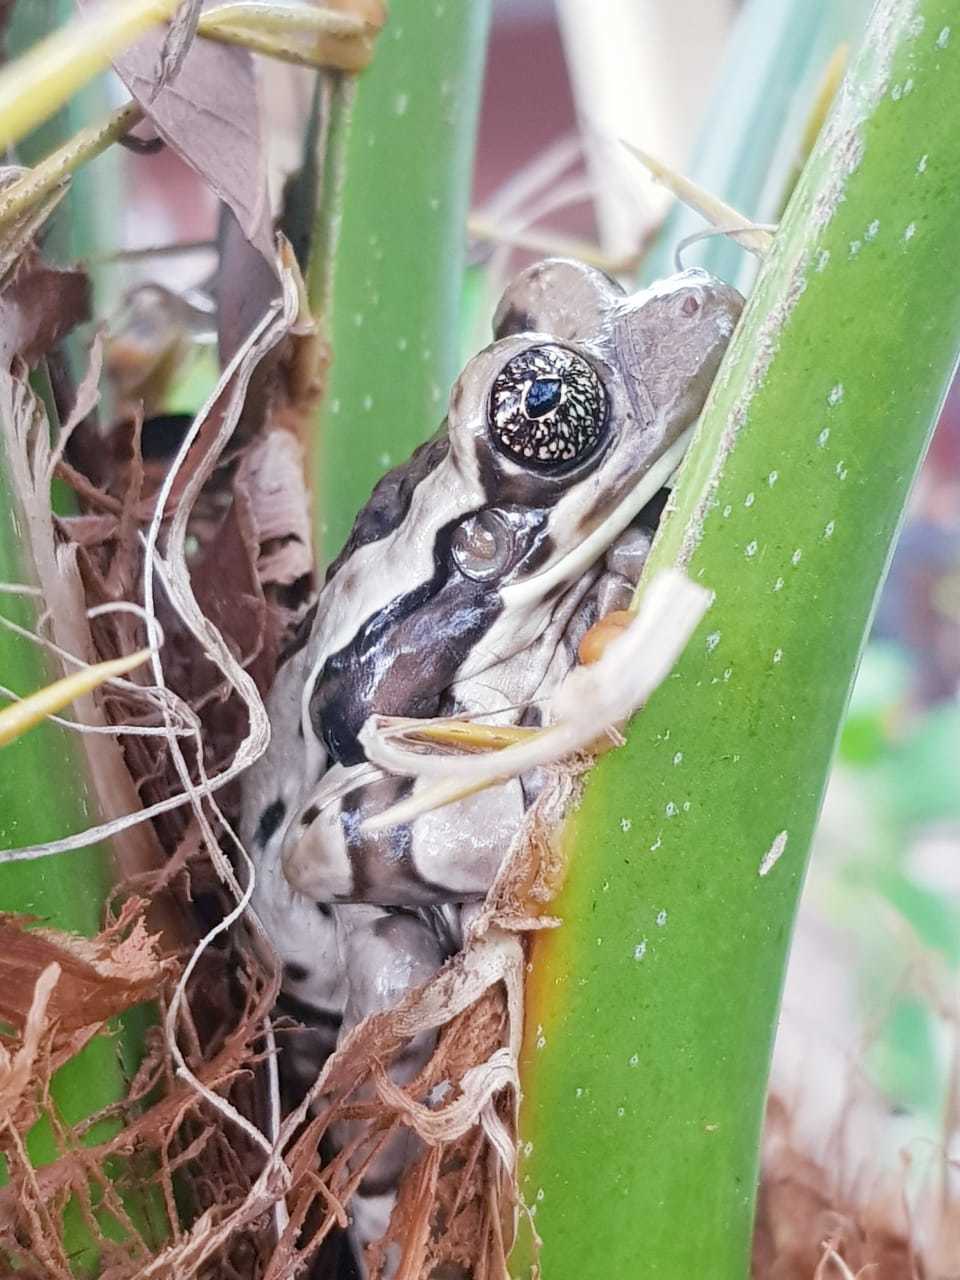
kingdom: Animalia
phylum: Chordata
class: Amphibia
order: Anura
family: Hylidae
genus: Trachycephalus
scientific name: Trachycephalus vermiculatus
